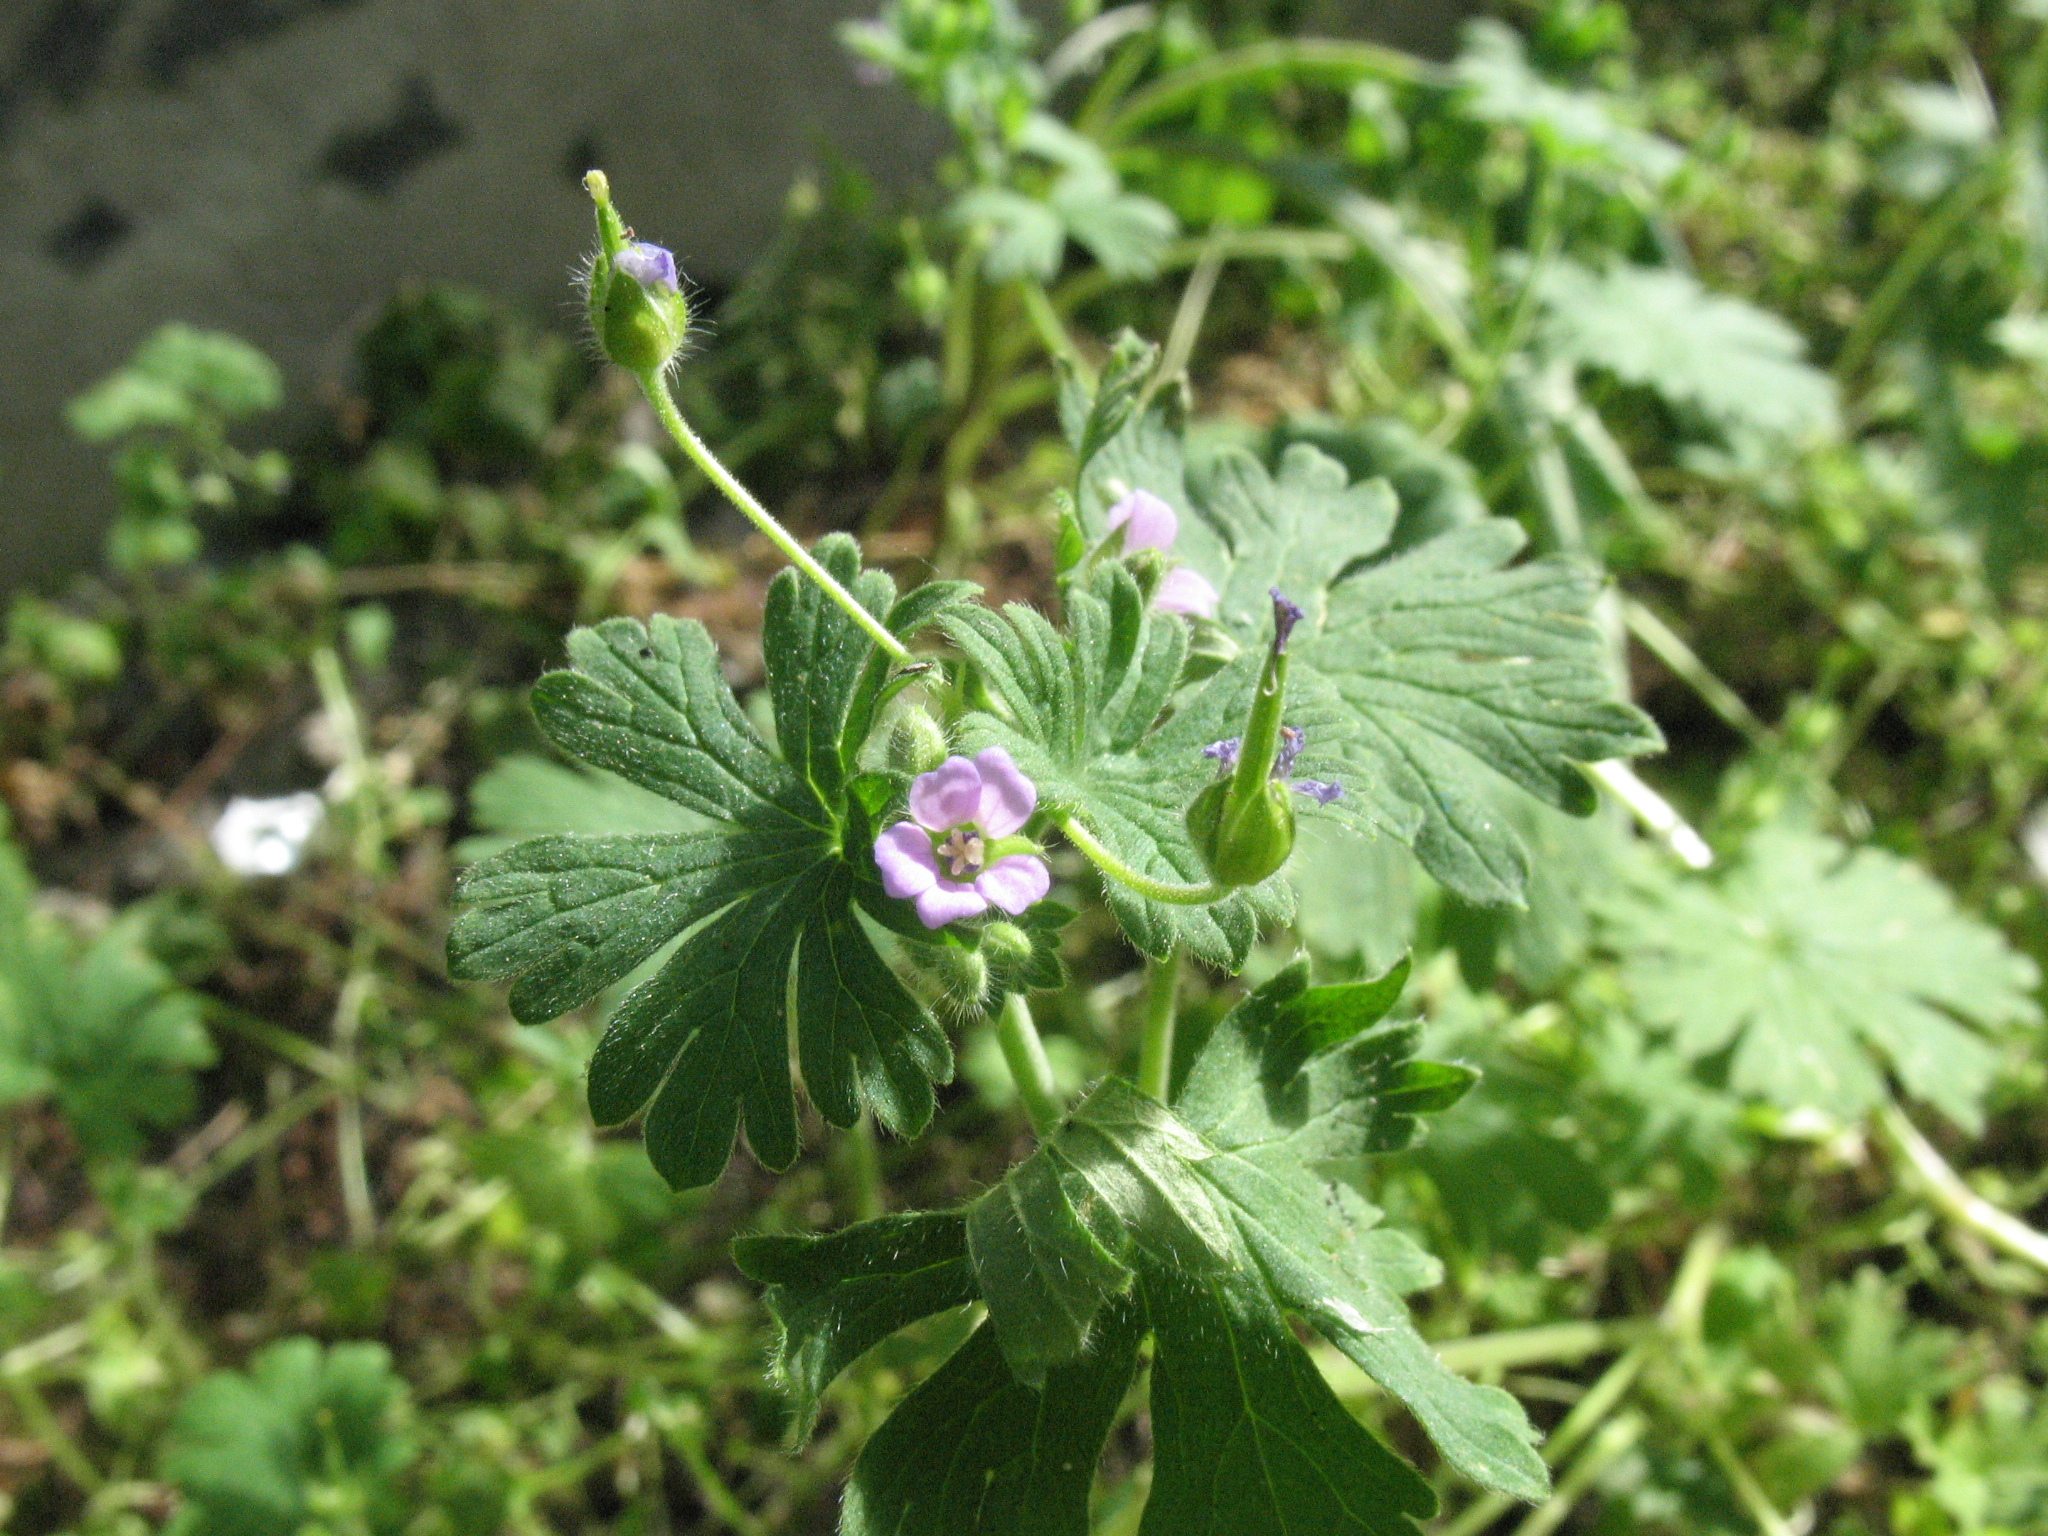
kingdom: Plantae
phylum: Tracheophyta
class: Magnoliopsida
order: Geraniales
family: Geraniaceae
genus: Geranium
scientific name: Geranium pusillum
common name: Small geranium
